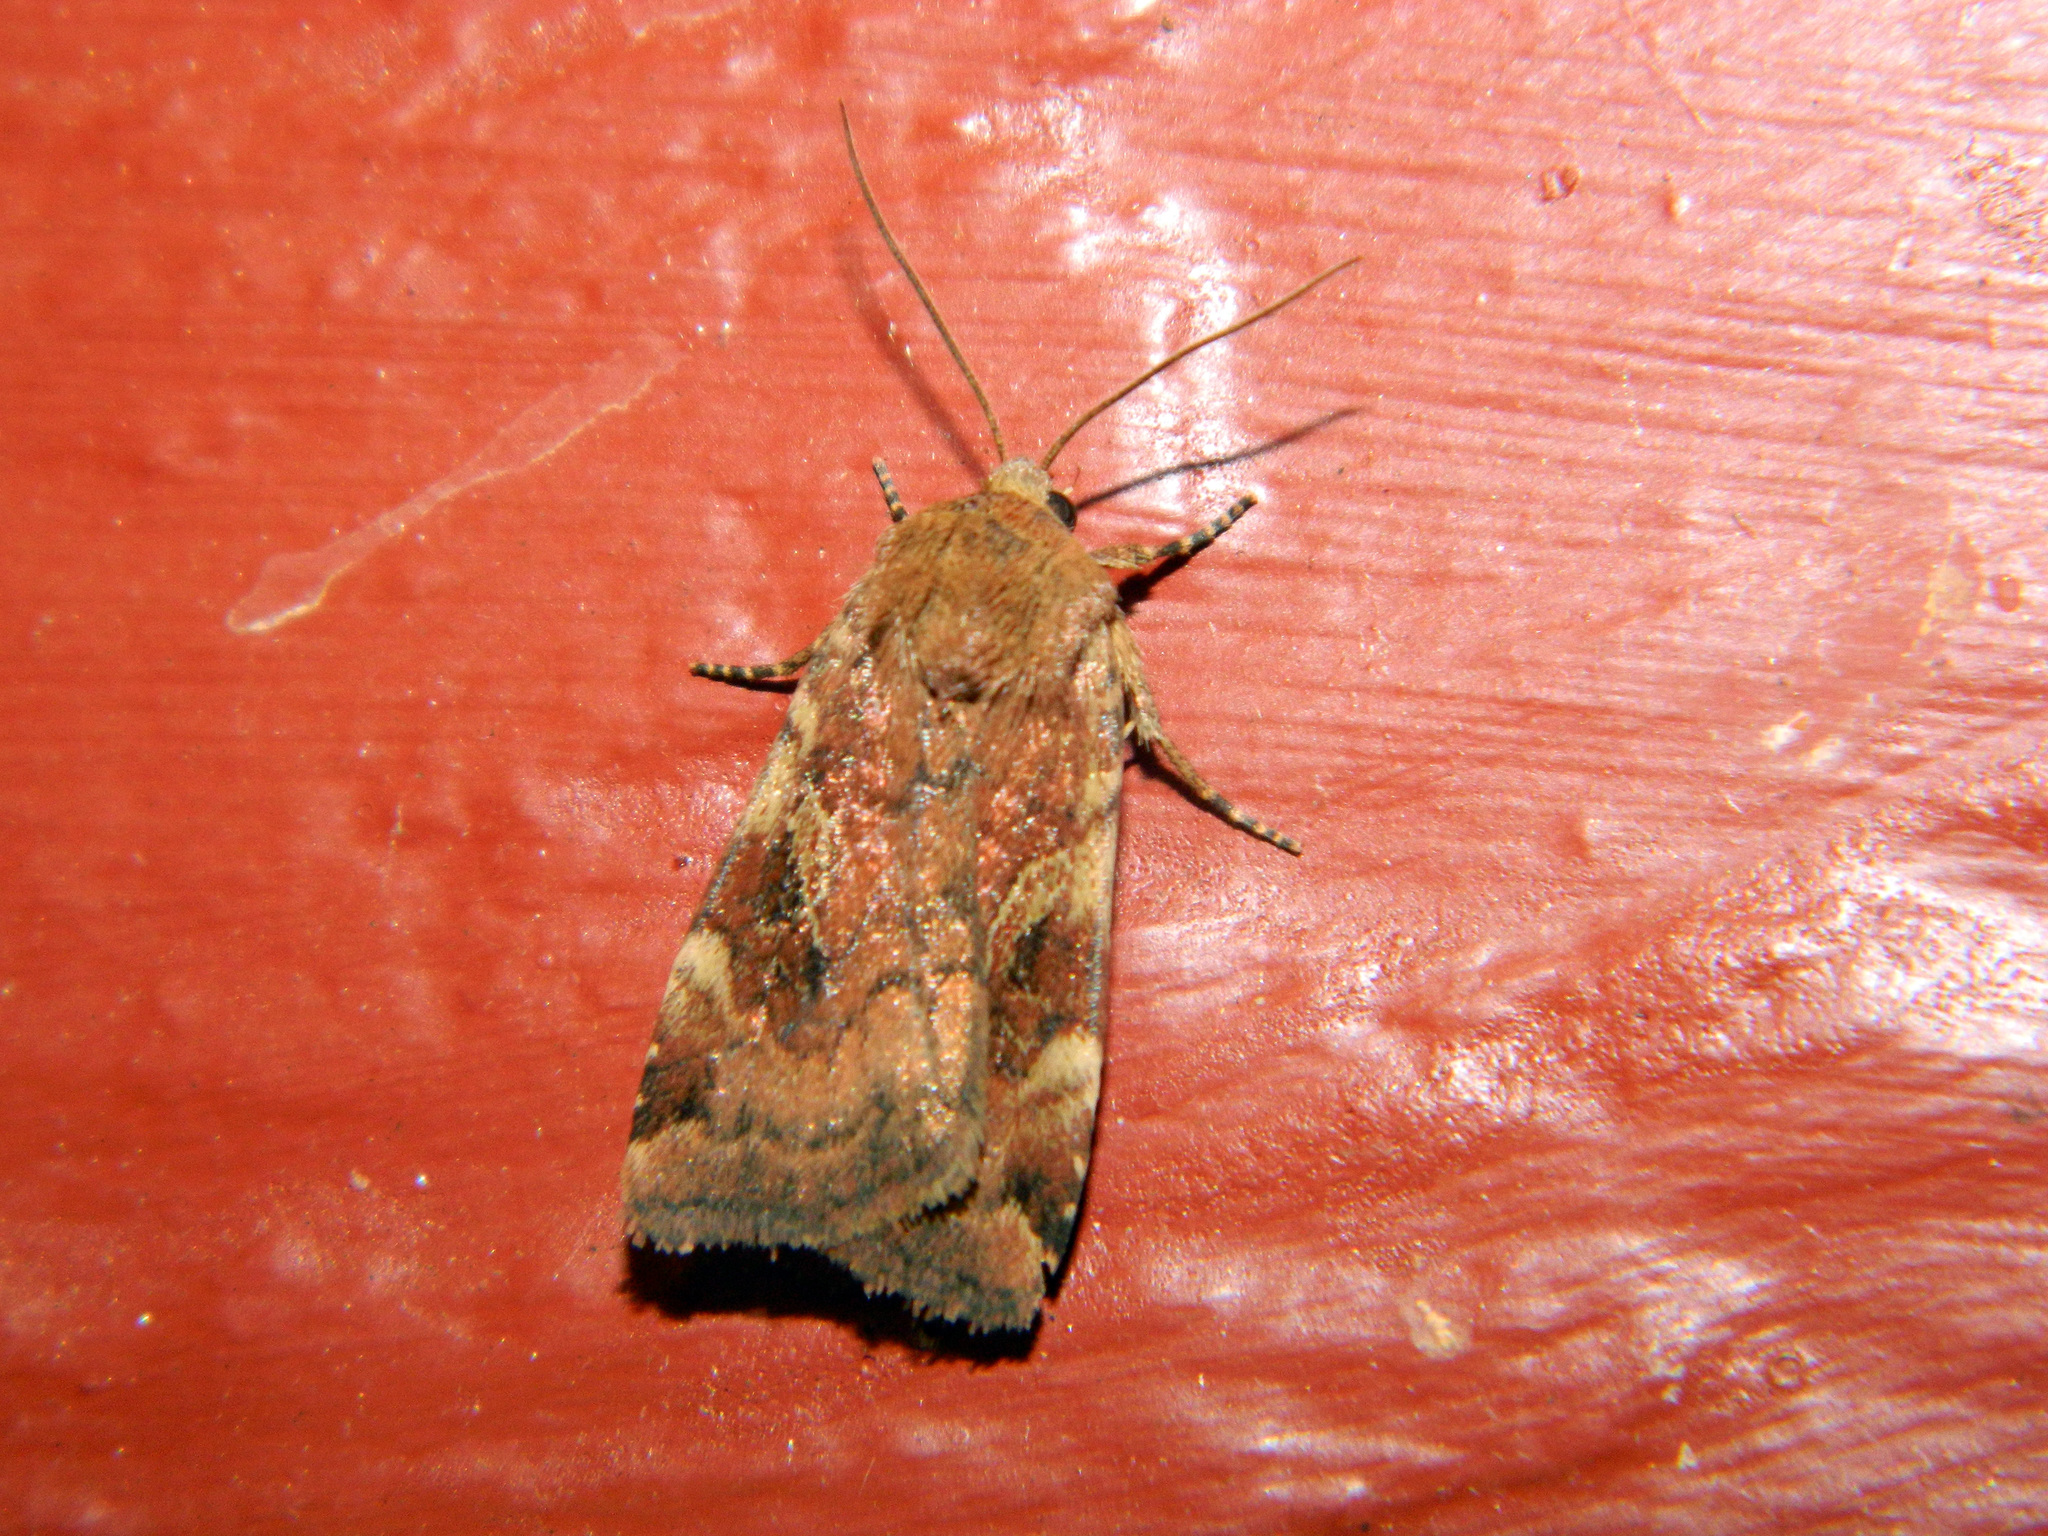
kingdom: Animalia
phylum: Arthropoda
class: Insecta
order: Lepidoptera
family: Noctuidae
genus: Cryptocala
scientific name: Cryptocala acadiensis
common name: Catocaline dart
